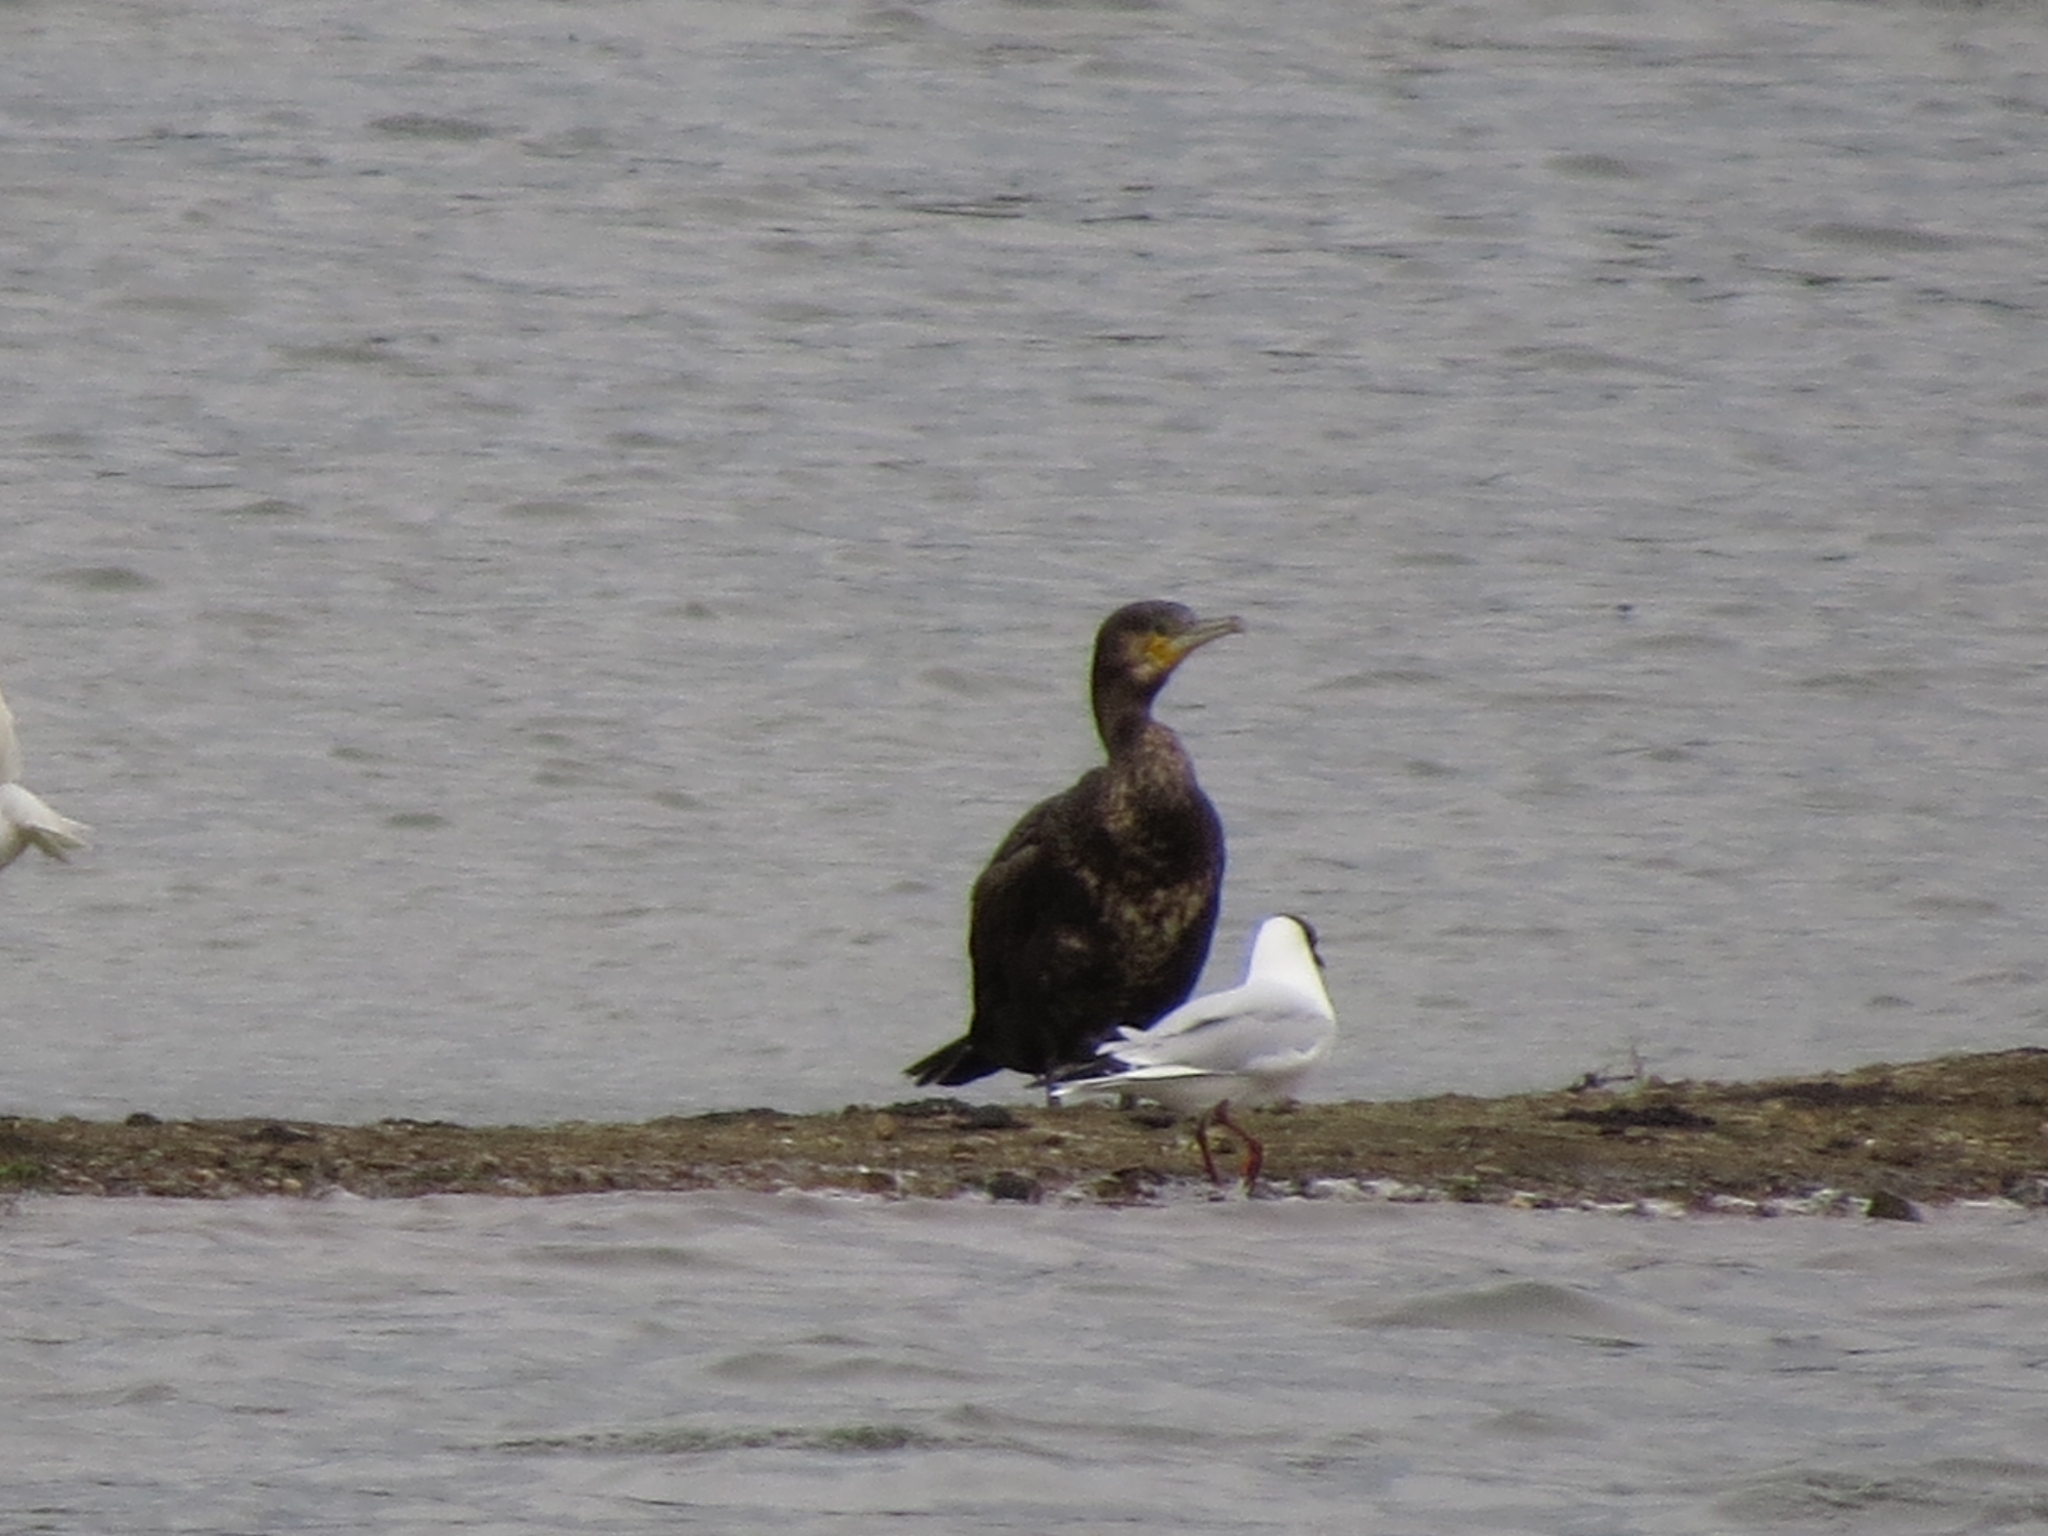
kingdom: Animalia
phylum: Chordata
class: Aves
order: Suliformes
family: Phalacrocoracidae
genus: Phalacrocorax
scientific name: Phalacrocorax carbo
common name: Great cormorant
